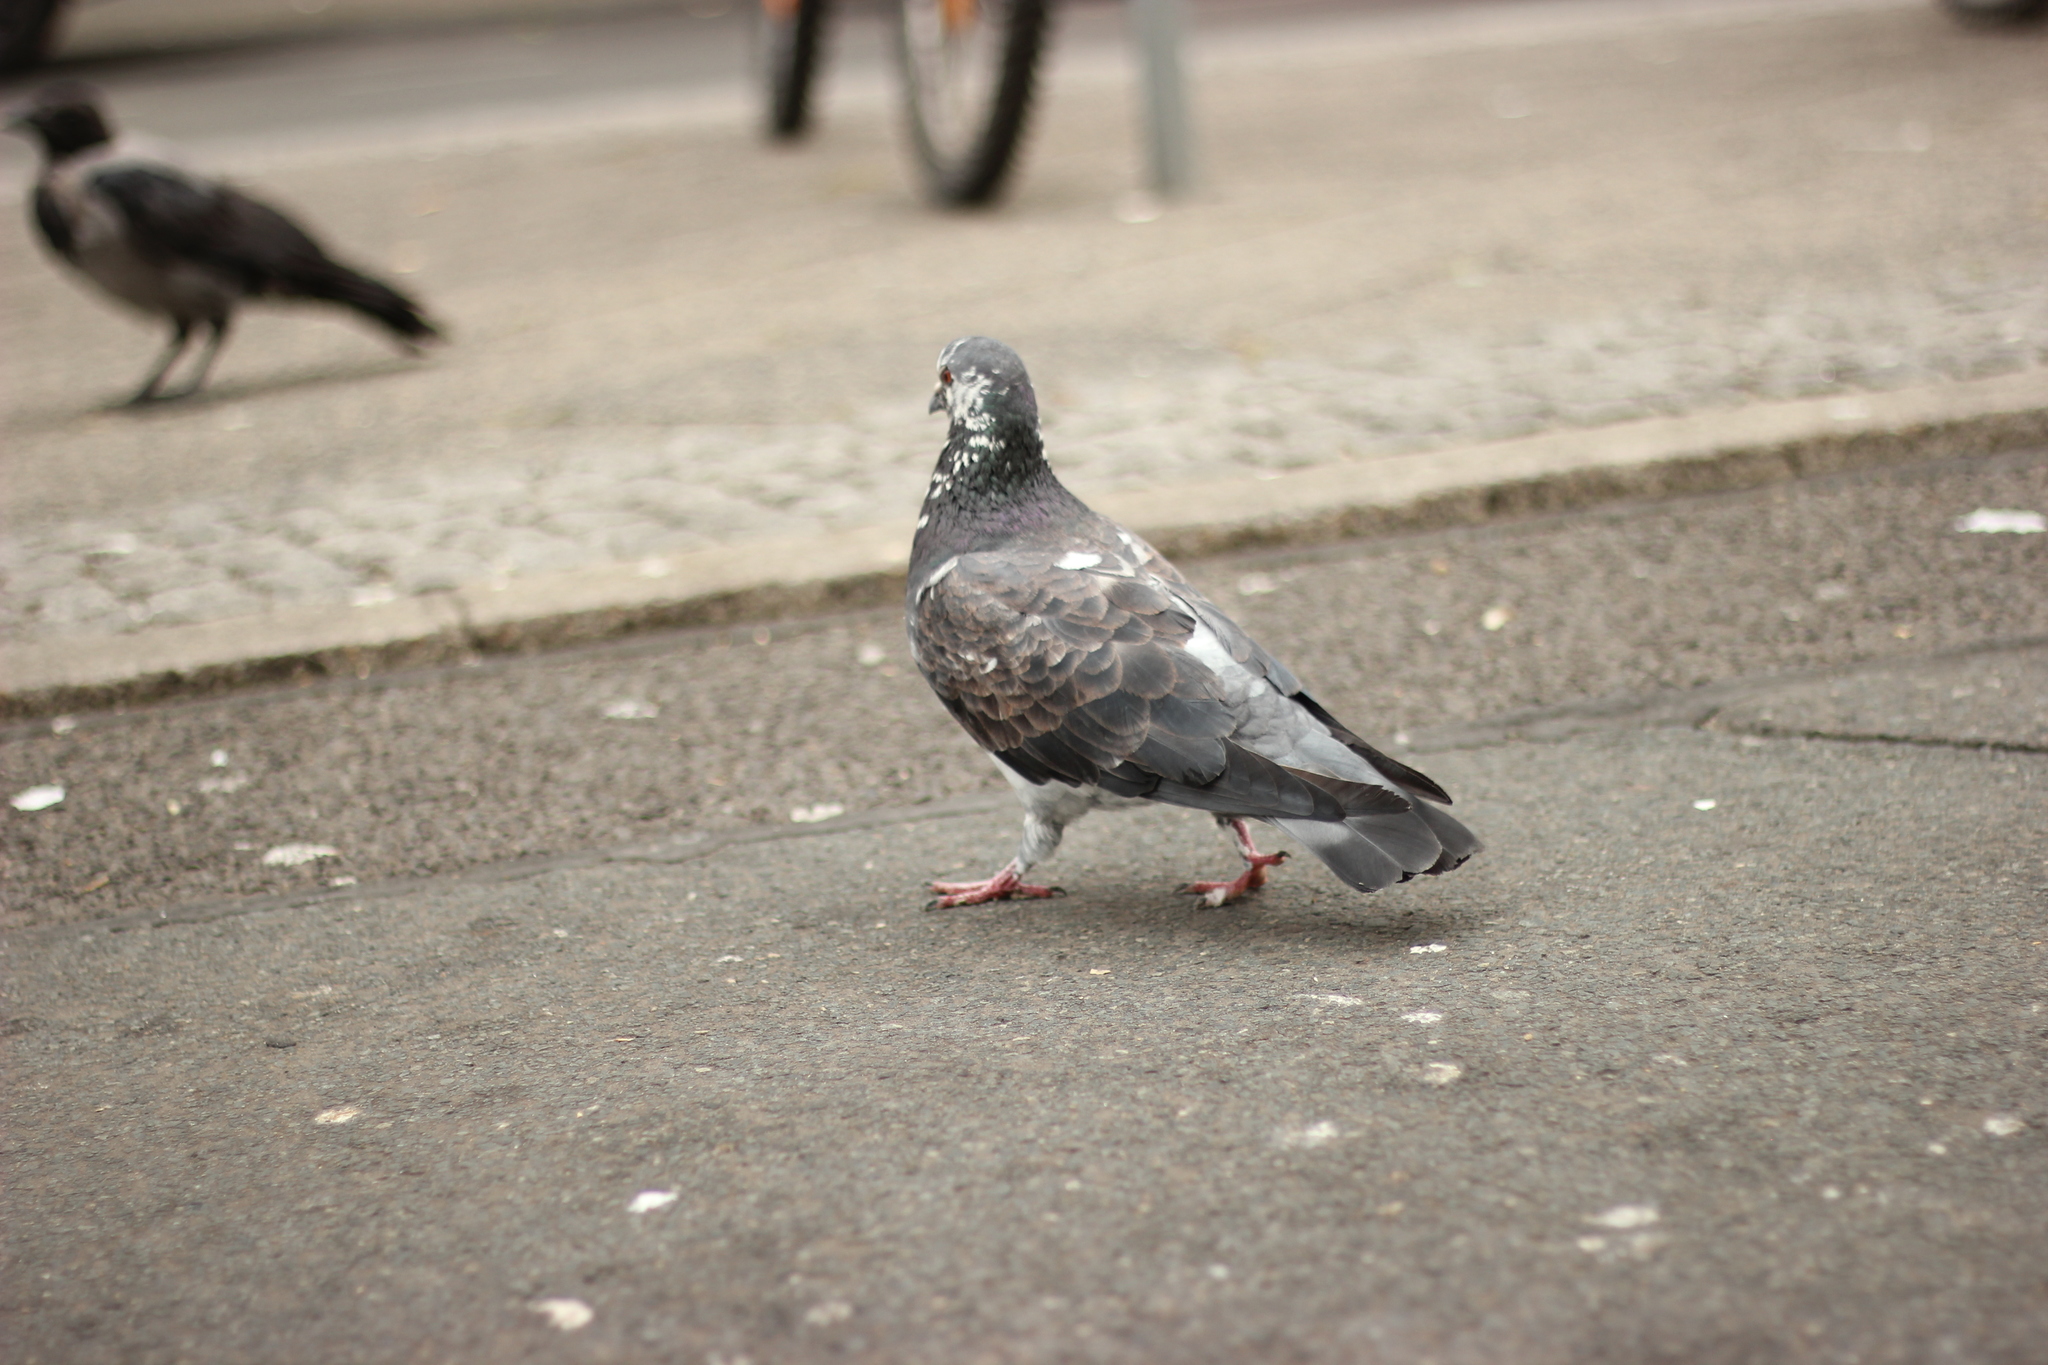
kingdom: Animalia
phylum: Chordata
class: Aves
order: Columbiformes
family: Columbidae
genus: Columba
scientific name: Columba livia
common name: Rock pigeon
